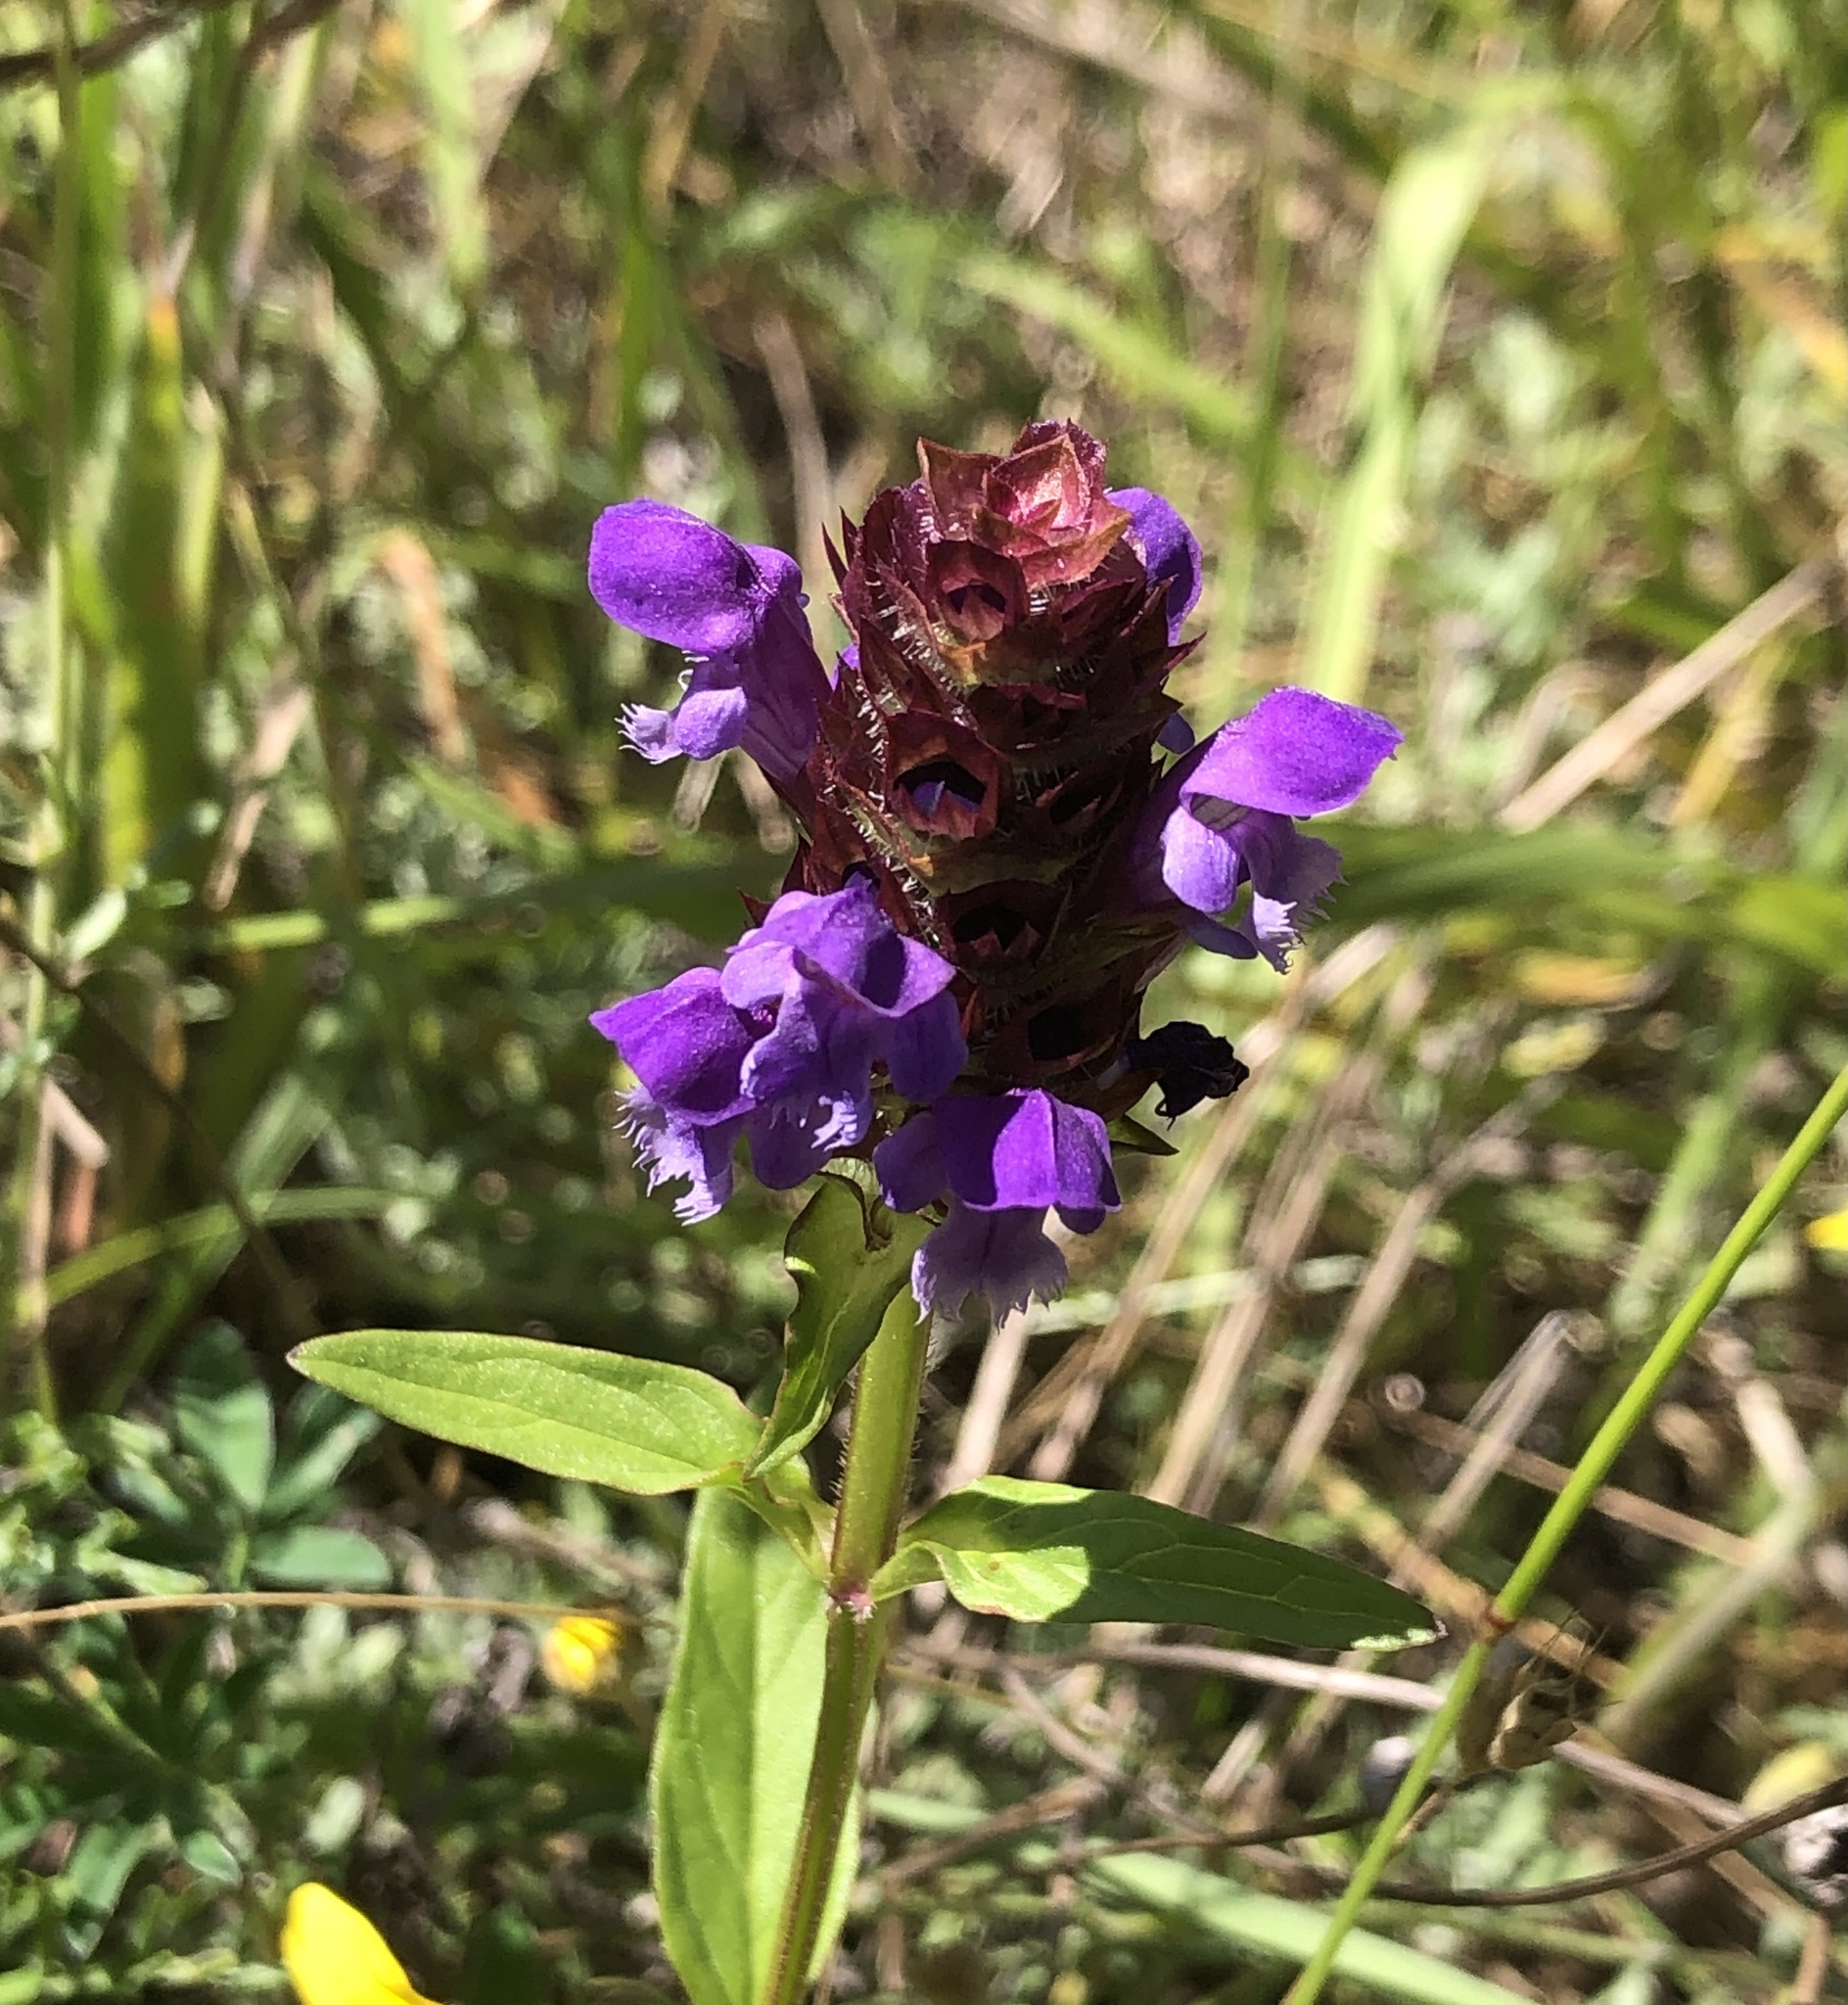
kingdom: Plantae
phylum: Tracheophyta
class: Magnoliopsida
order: Lamiales
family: Lamiaceae
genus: Prunella
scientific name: Prunella vulgaris
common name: Heal-all
